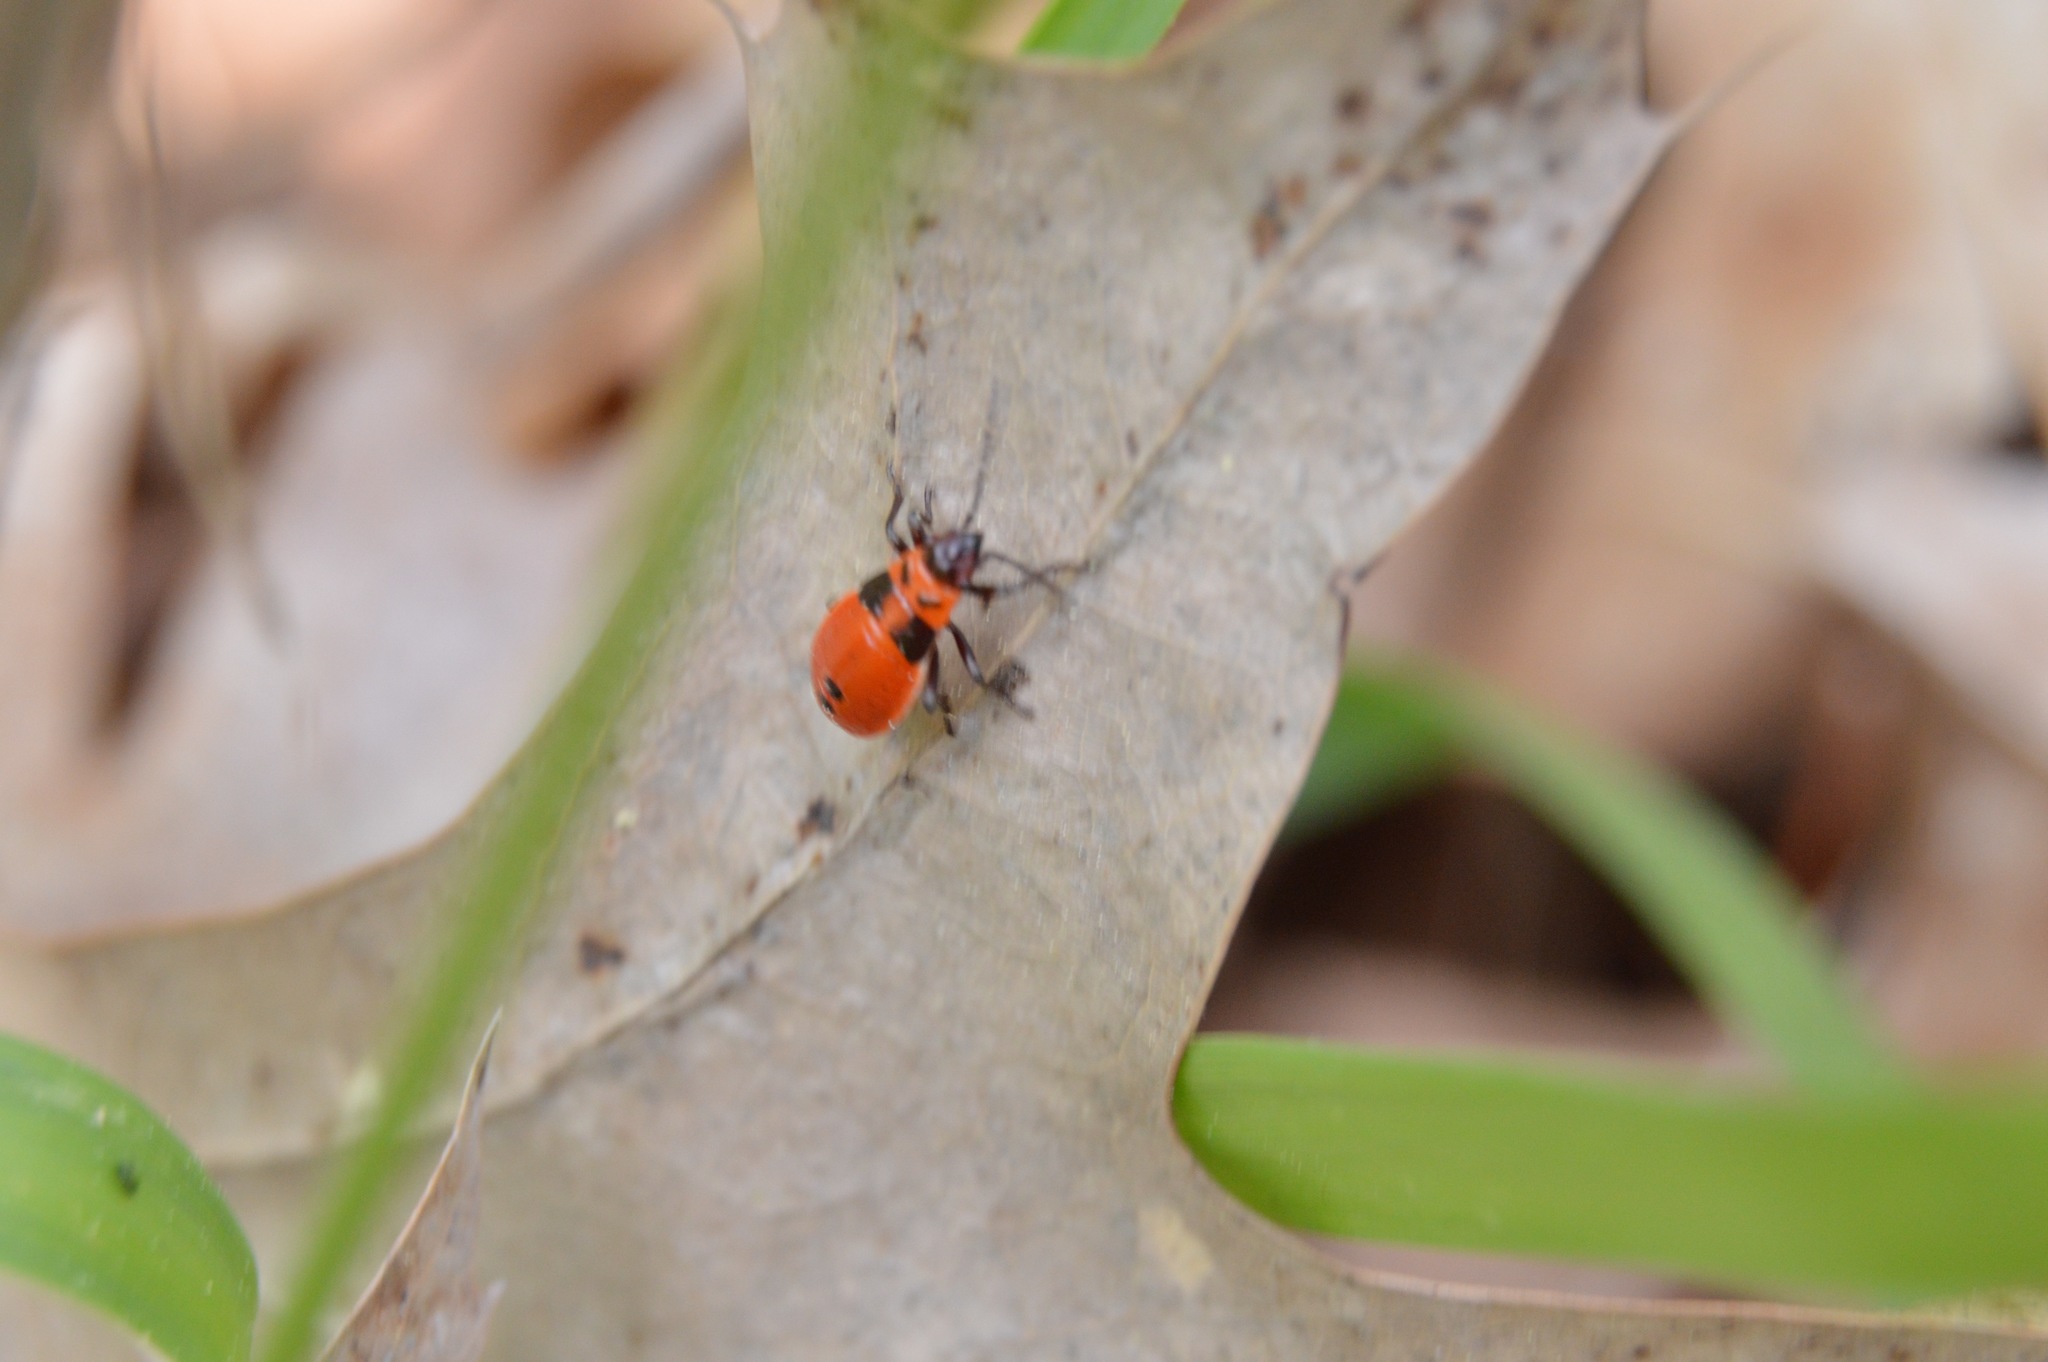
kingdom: Animalia
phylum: Arthropoda
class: Insecta
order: Hemiptera
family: Lygaeidae
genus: Lygaeus
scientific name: Lygaeus turcicus
